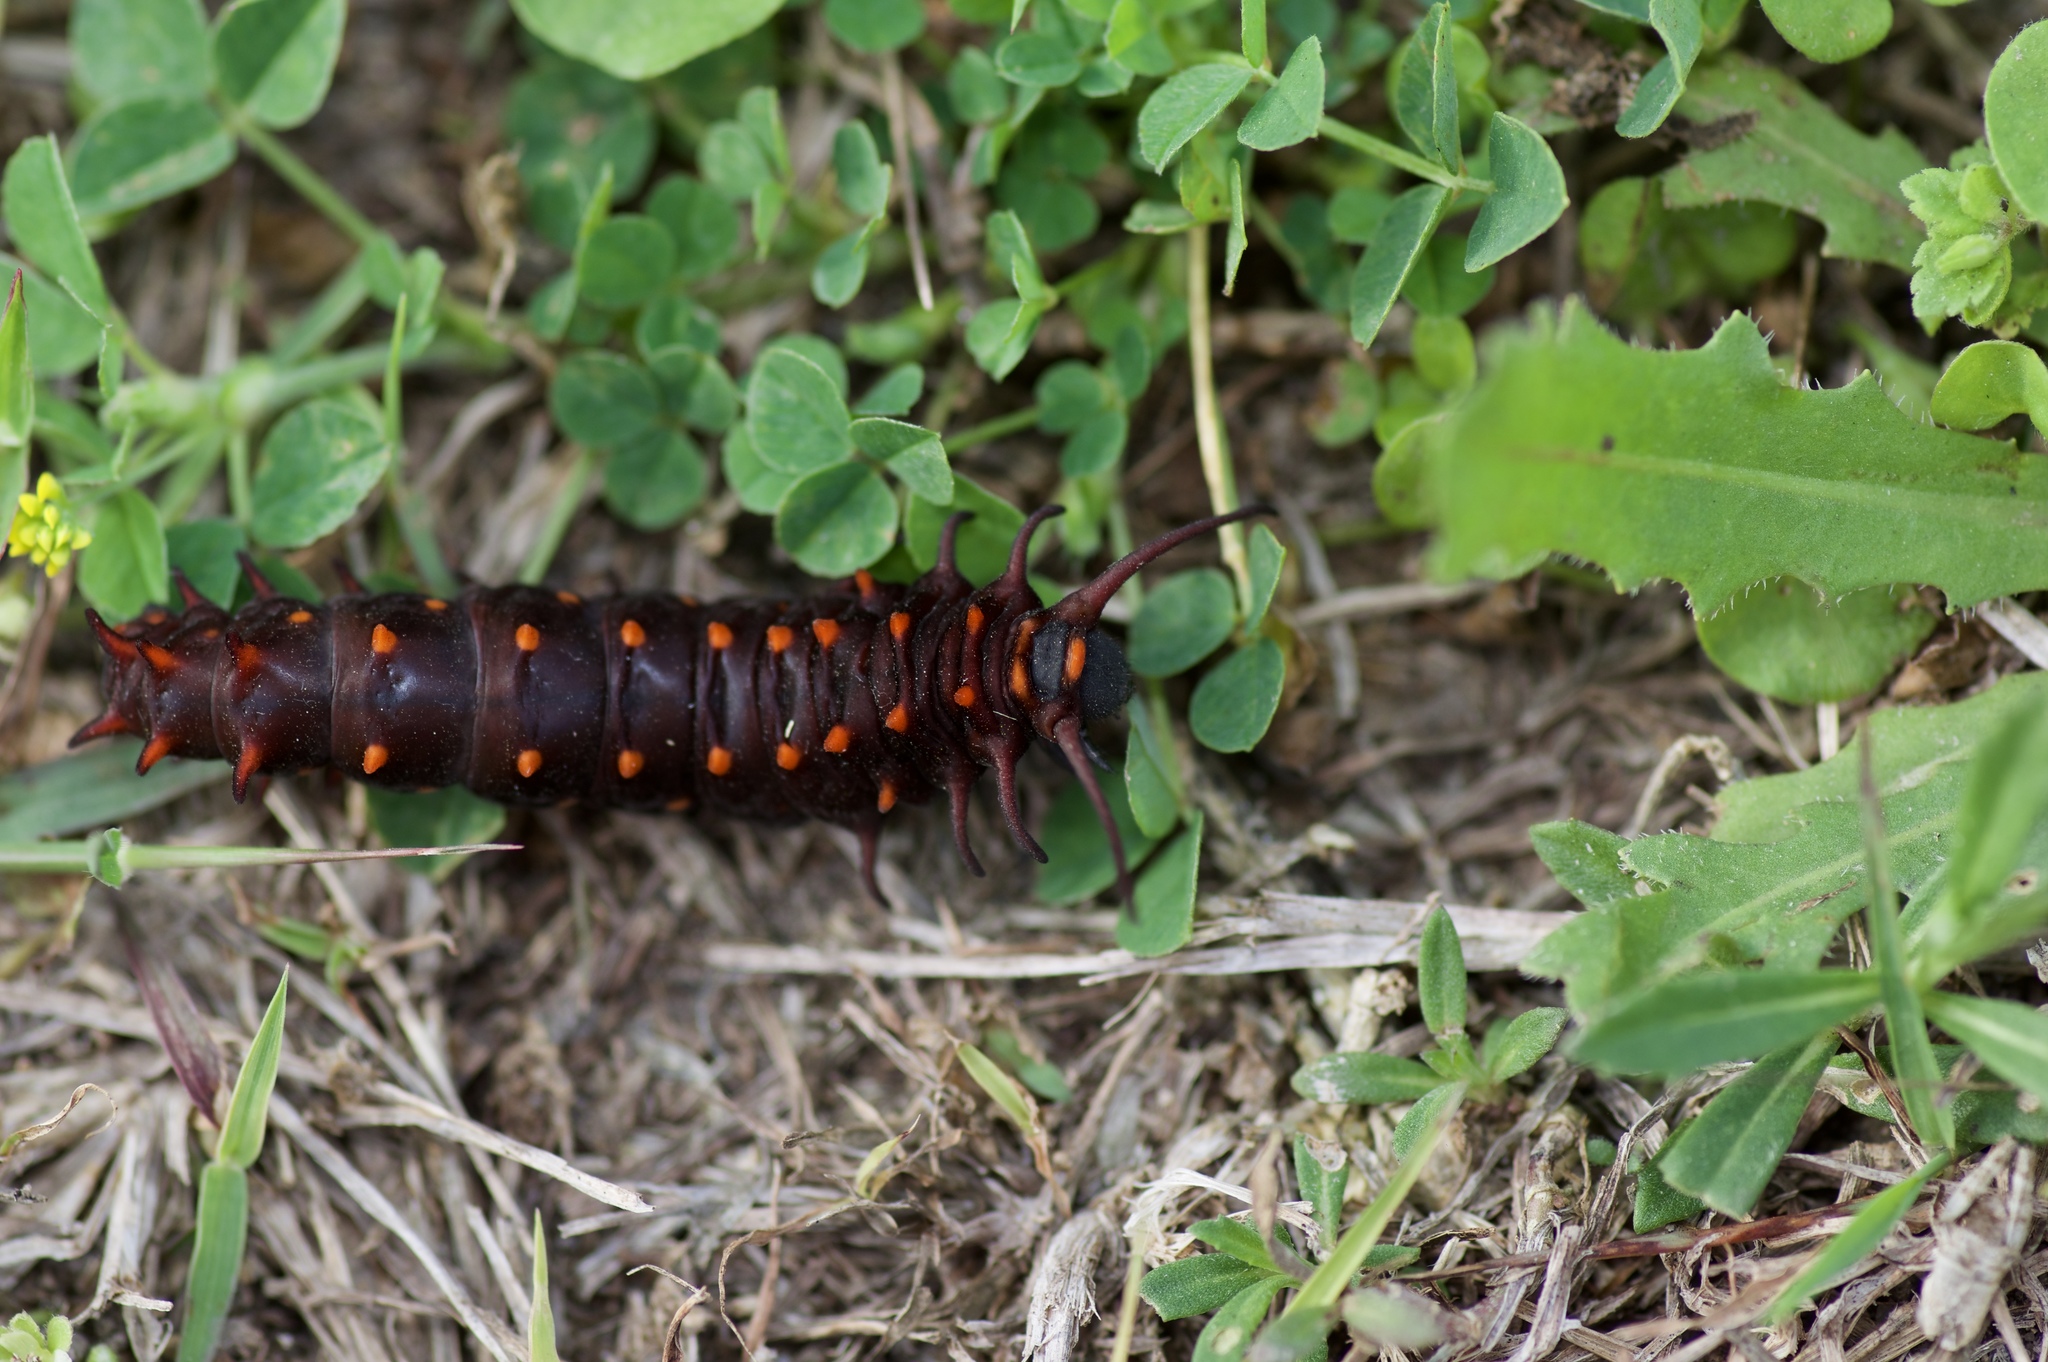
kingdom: Animalia
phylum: Arthropoda
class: Insecta
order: Lepidoptera
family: Papilionidae
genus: Battus
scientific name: Battus philenor
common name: Pipevine swallowtail
